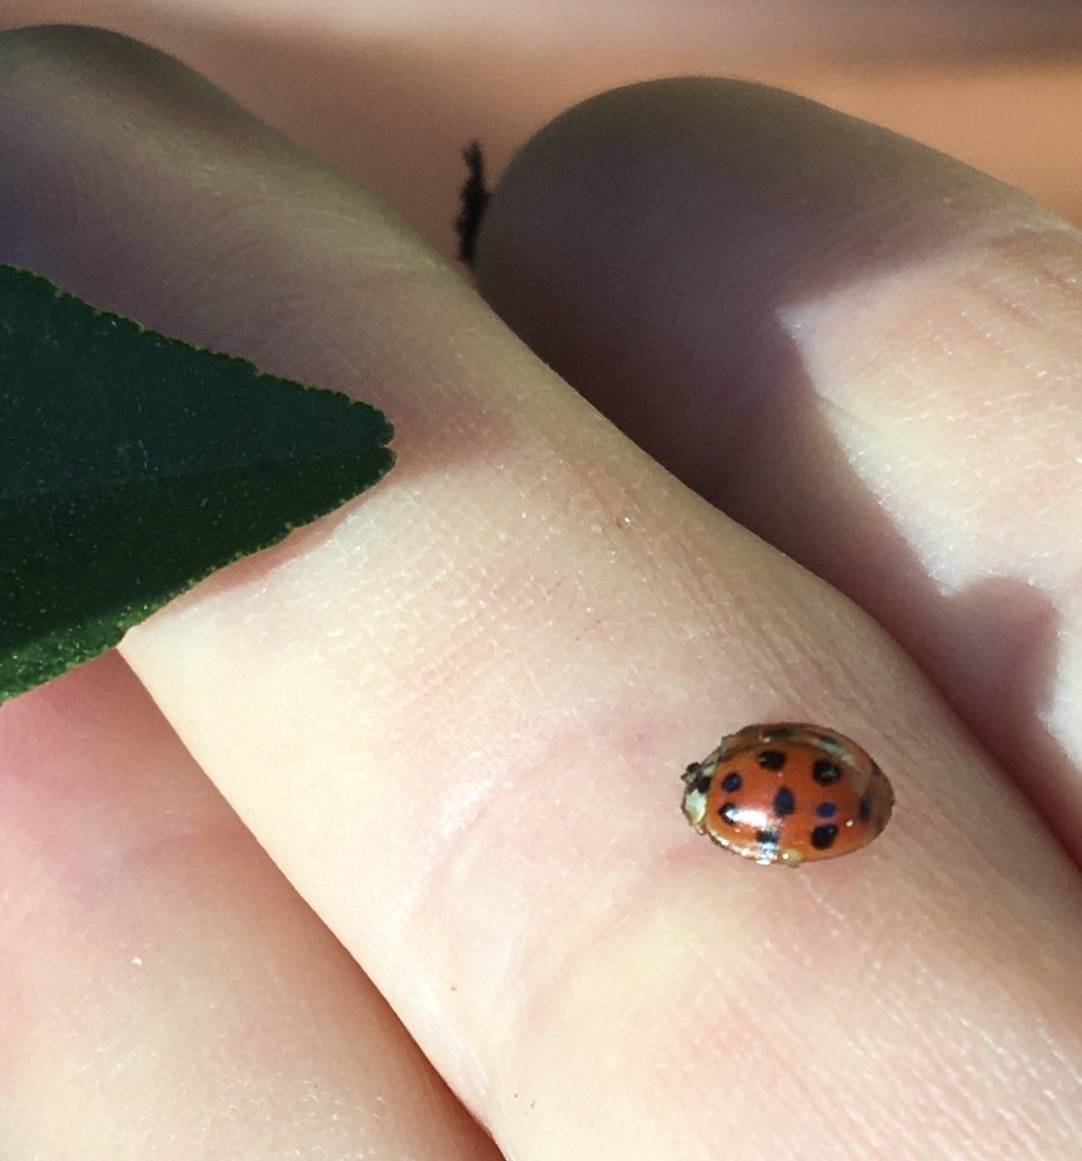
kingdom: Animalia
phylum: Arthropoda
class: Insecta
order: Coleoptera
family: Coccinellidae
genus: Harmonia
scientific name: Harmonia axyridis
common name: Harlequin ladybird
